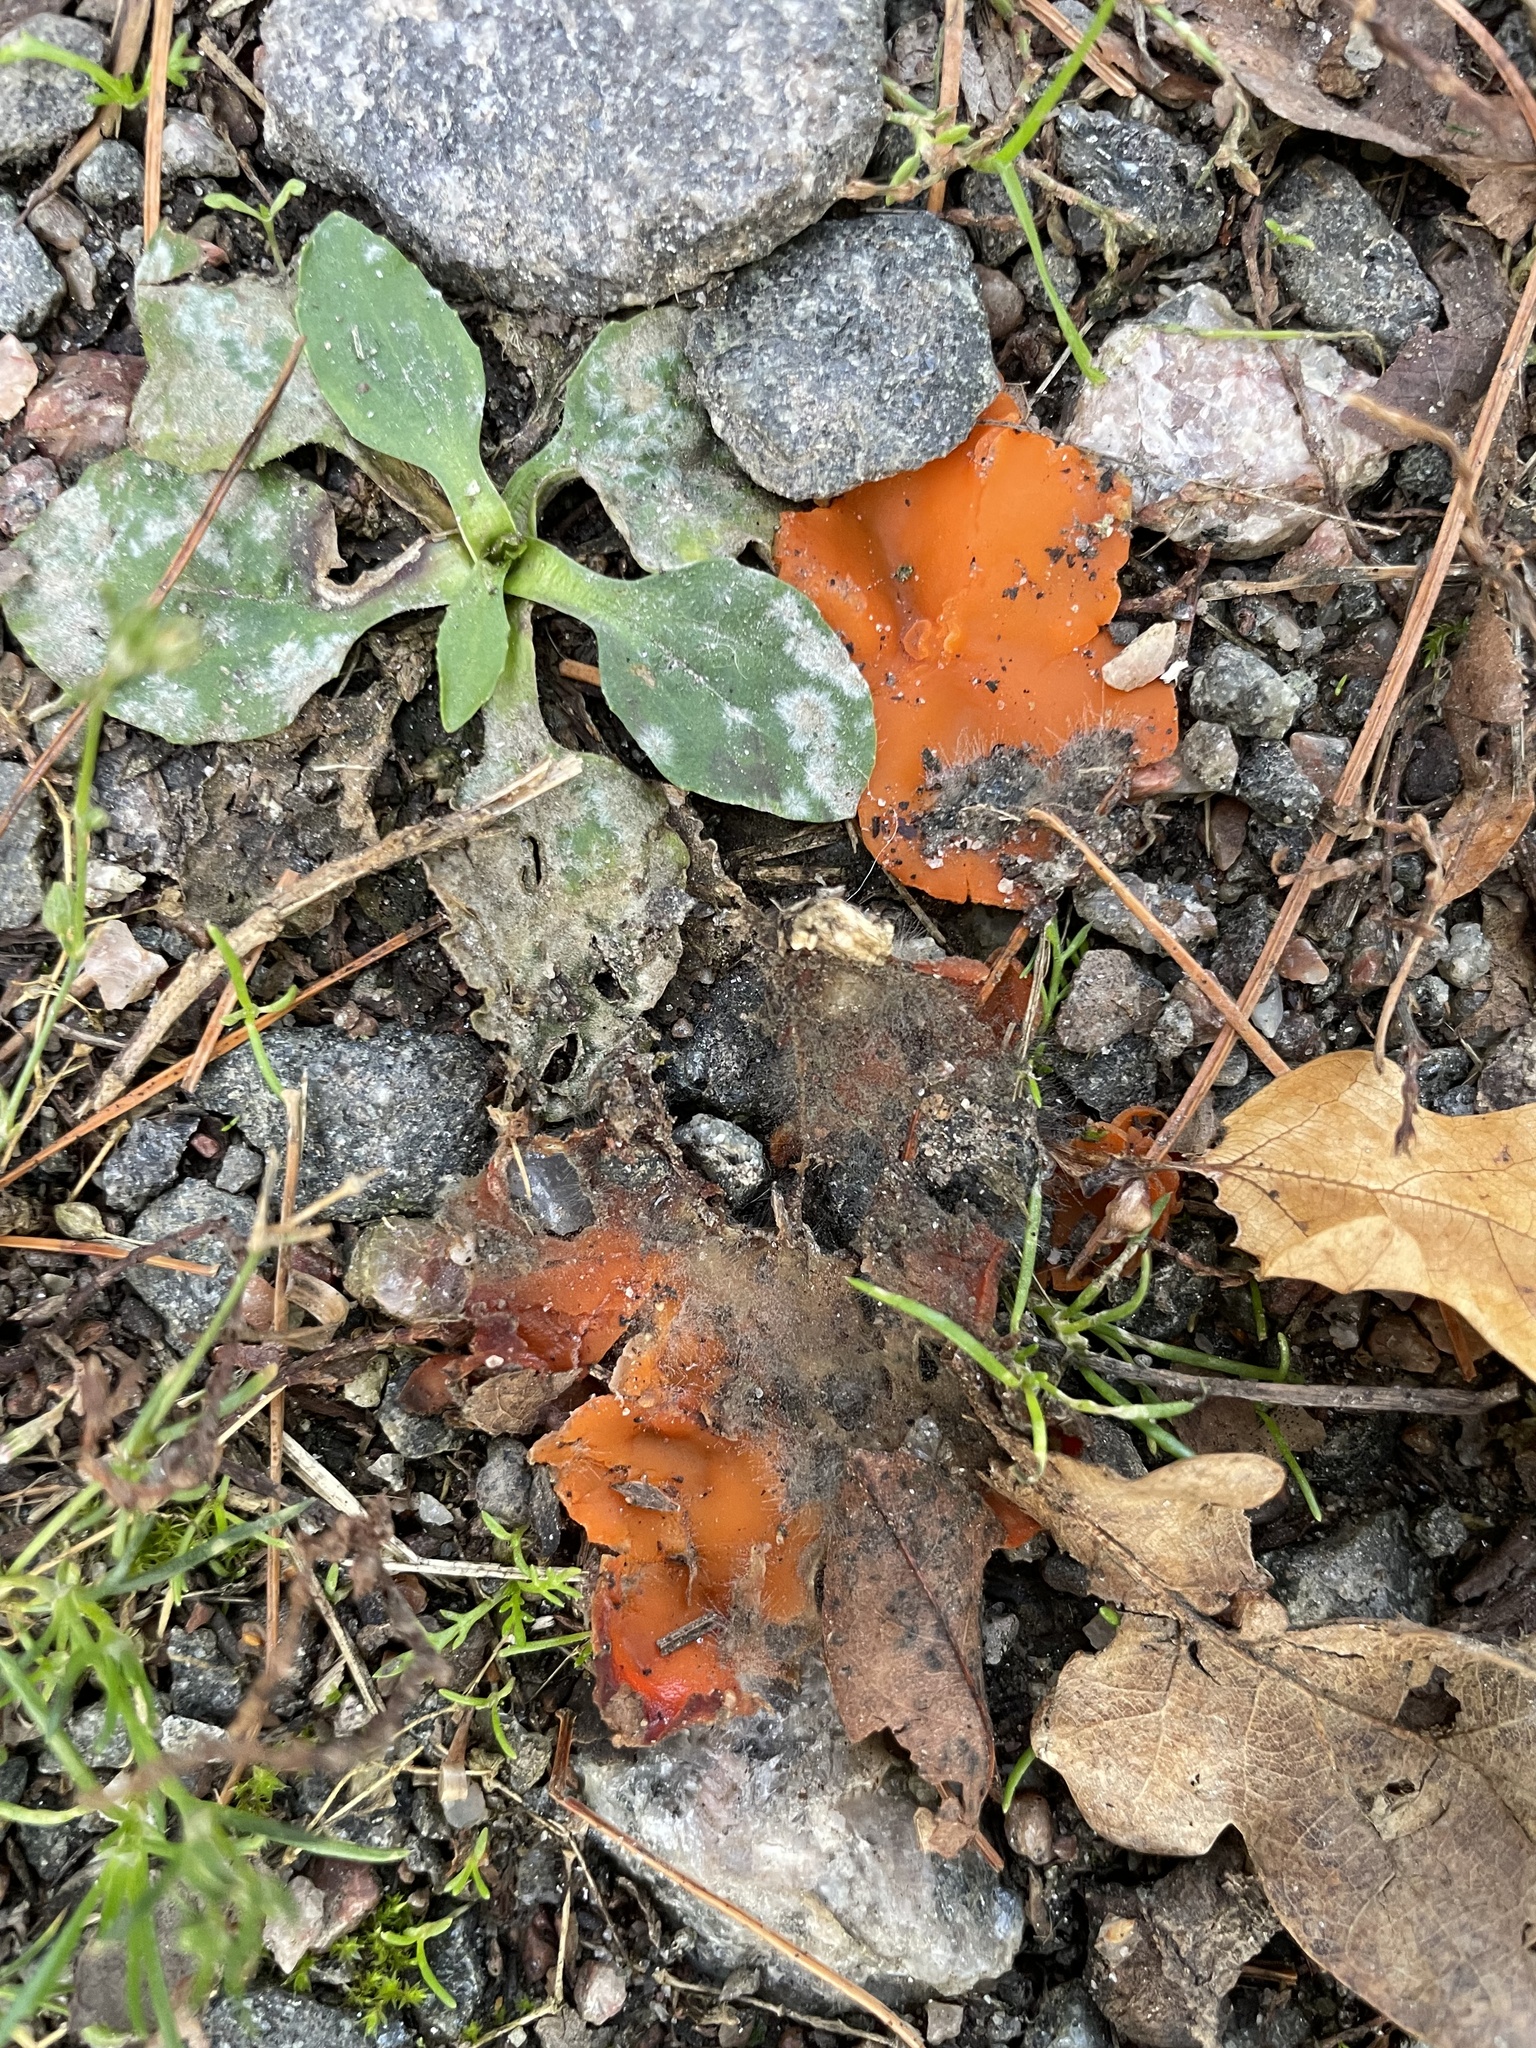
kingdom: Fungi
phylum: Ascomycota
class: Pezizomycetes
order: Pezizales
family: Pyronemataceae
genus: Aleuria
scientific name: Aleuria aurantia
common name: Orange peel fungus
